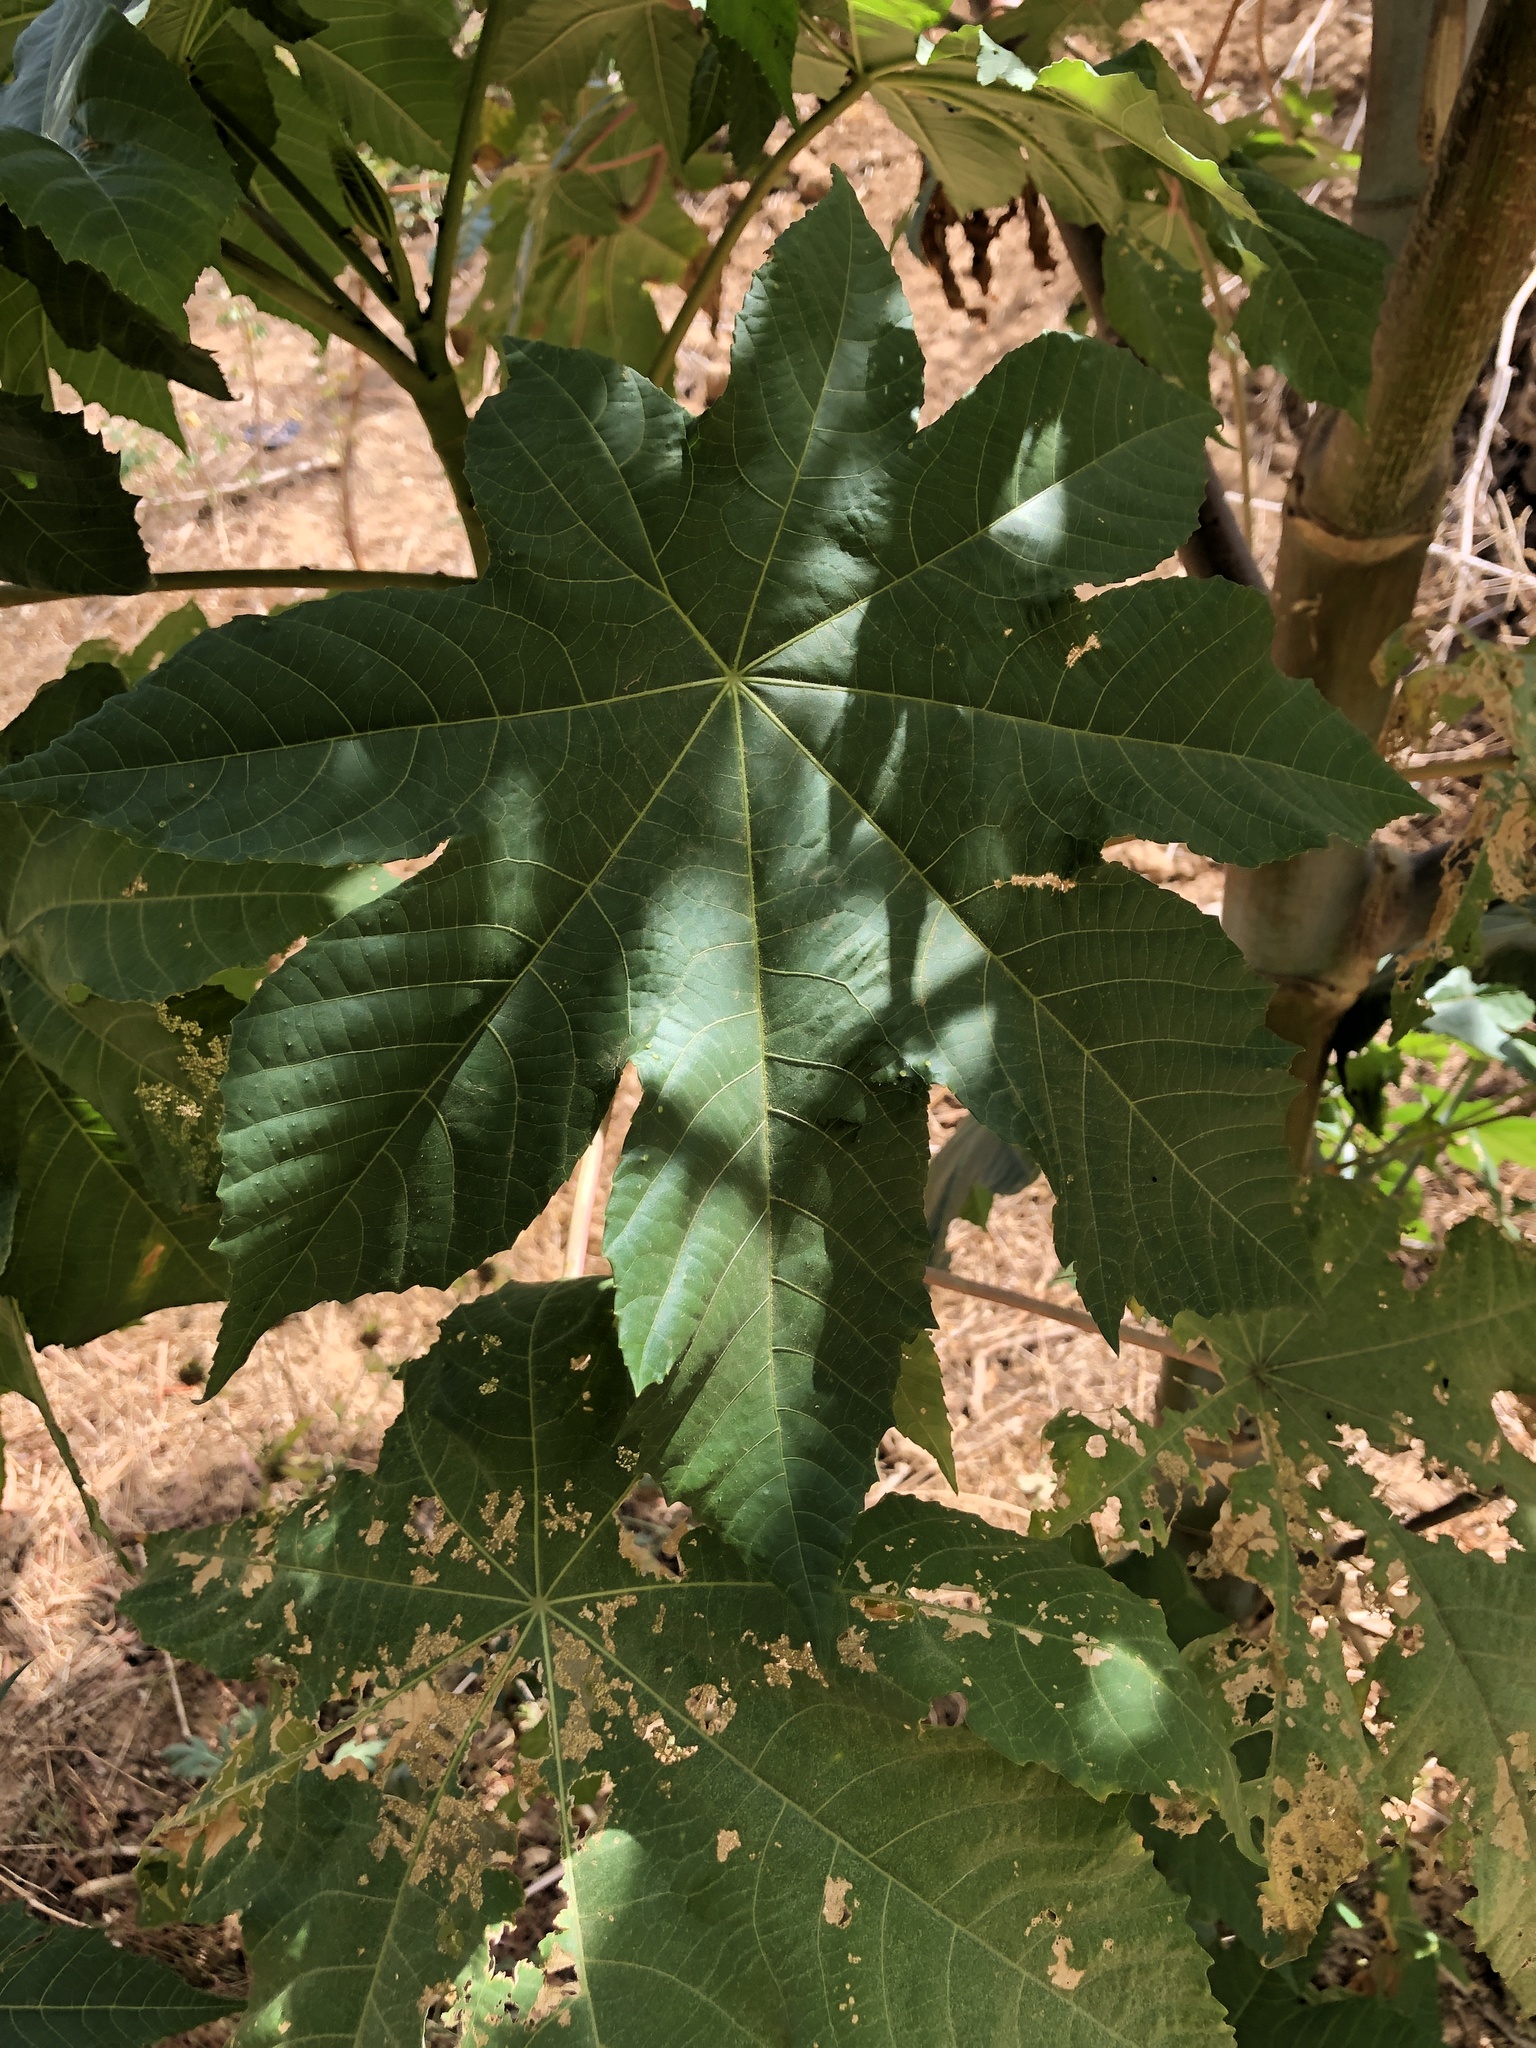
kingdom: Plantae
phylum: Tracheophyta
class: Magnoliopsida
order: Malpighiales
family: Euphorbiaceae
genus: Ricinus
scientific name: Ricinus communis
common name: Castor-oil-plant
